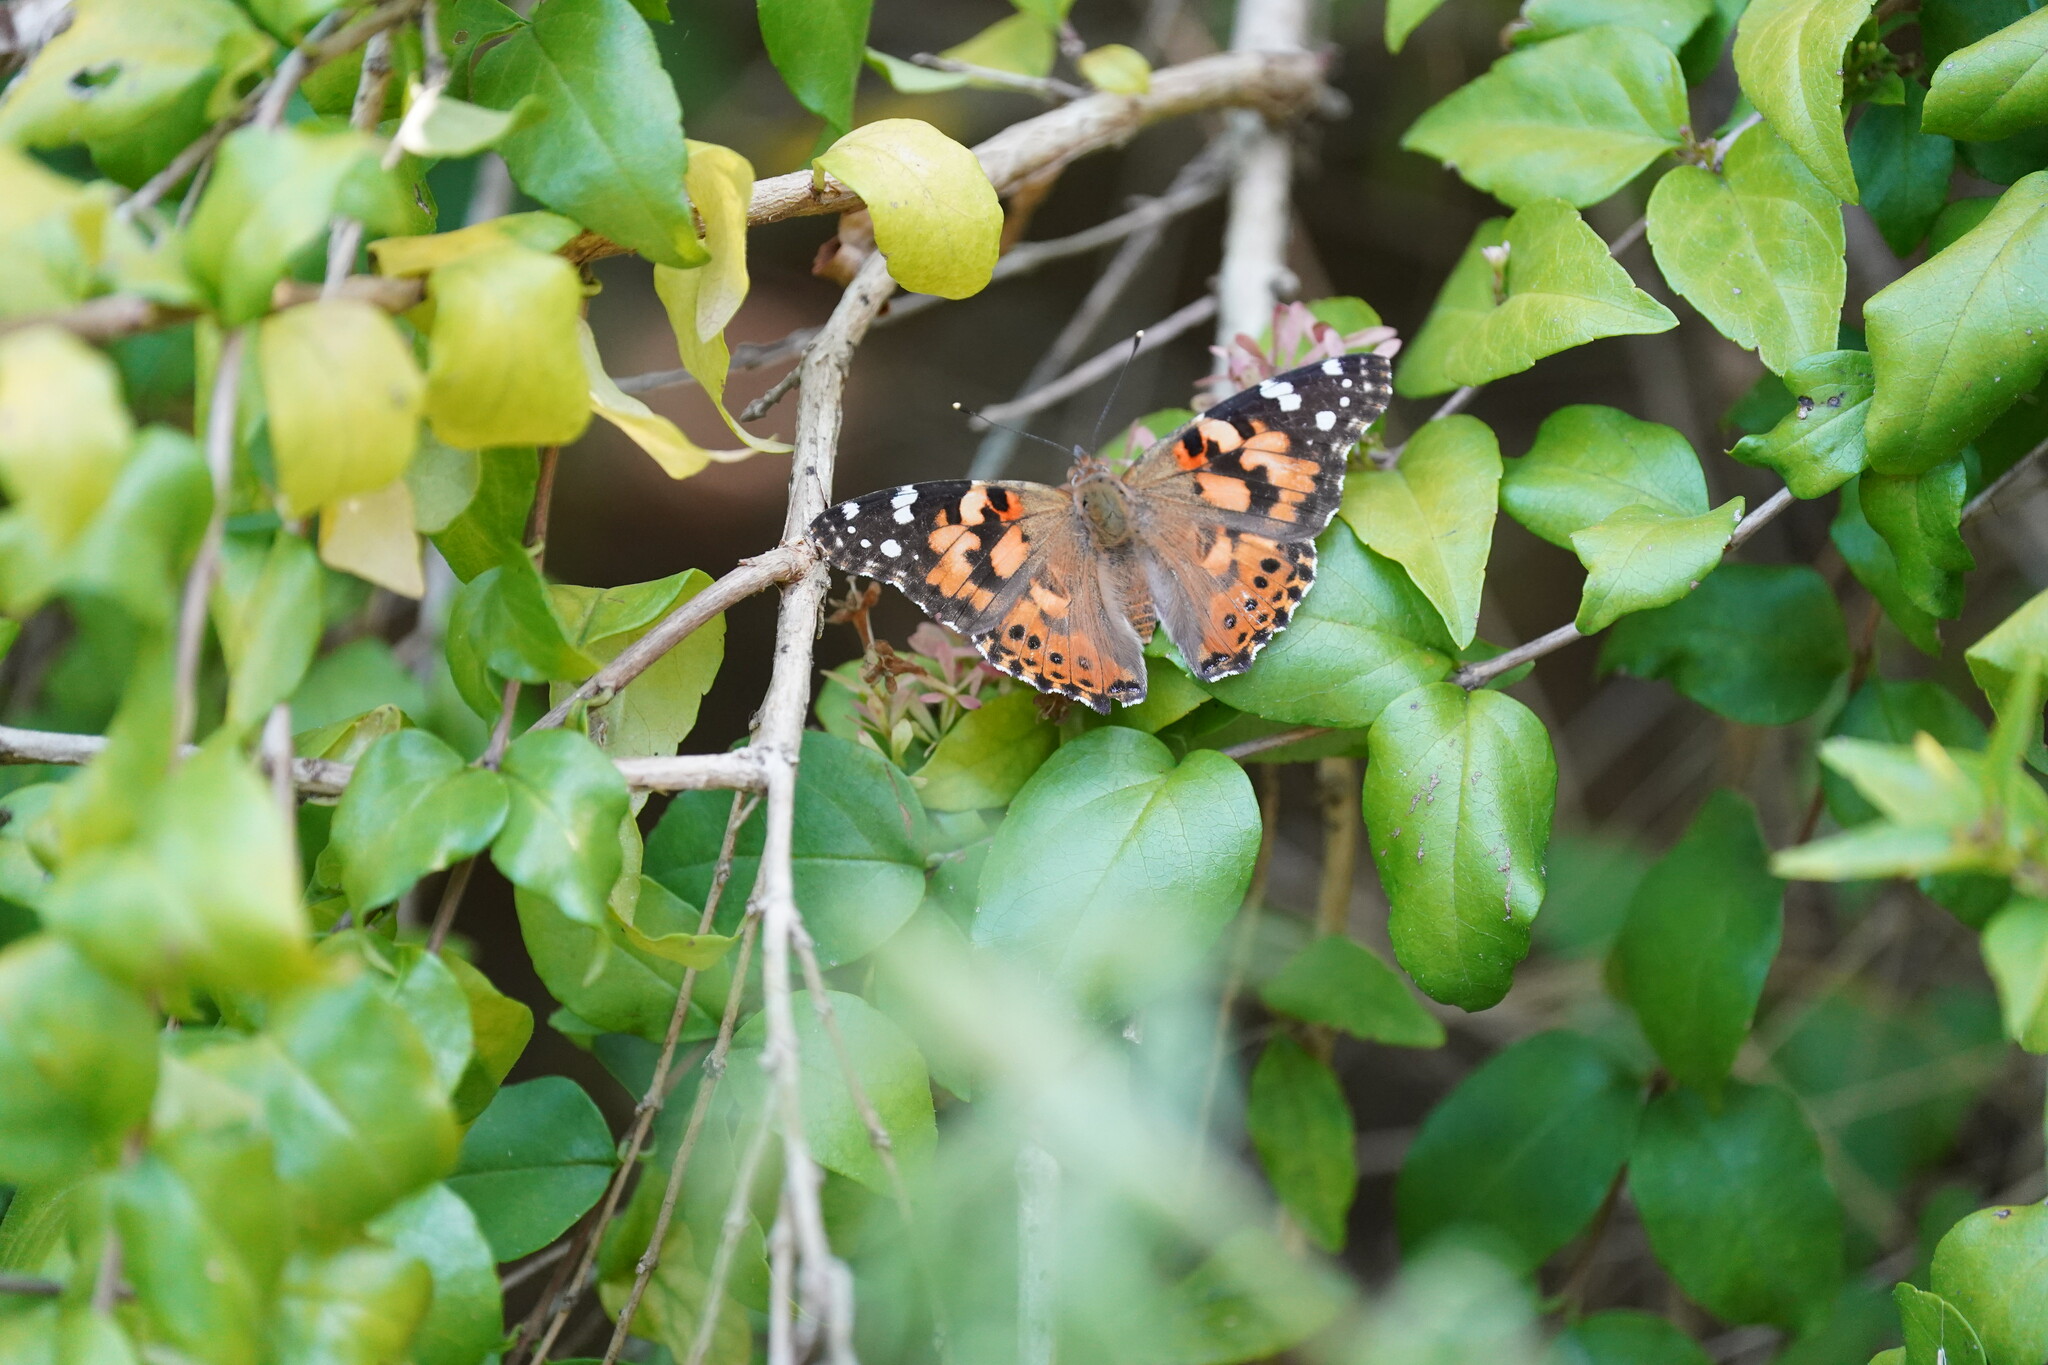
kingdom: Animalia
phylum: Arthropoda
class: Insecta
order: Lepidoptera
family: Nymphalidae
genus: Vanessa
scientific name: Vanessa cardui
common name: Painted lady
